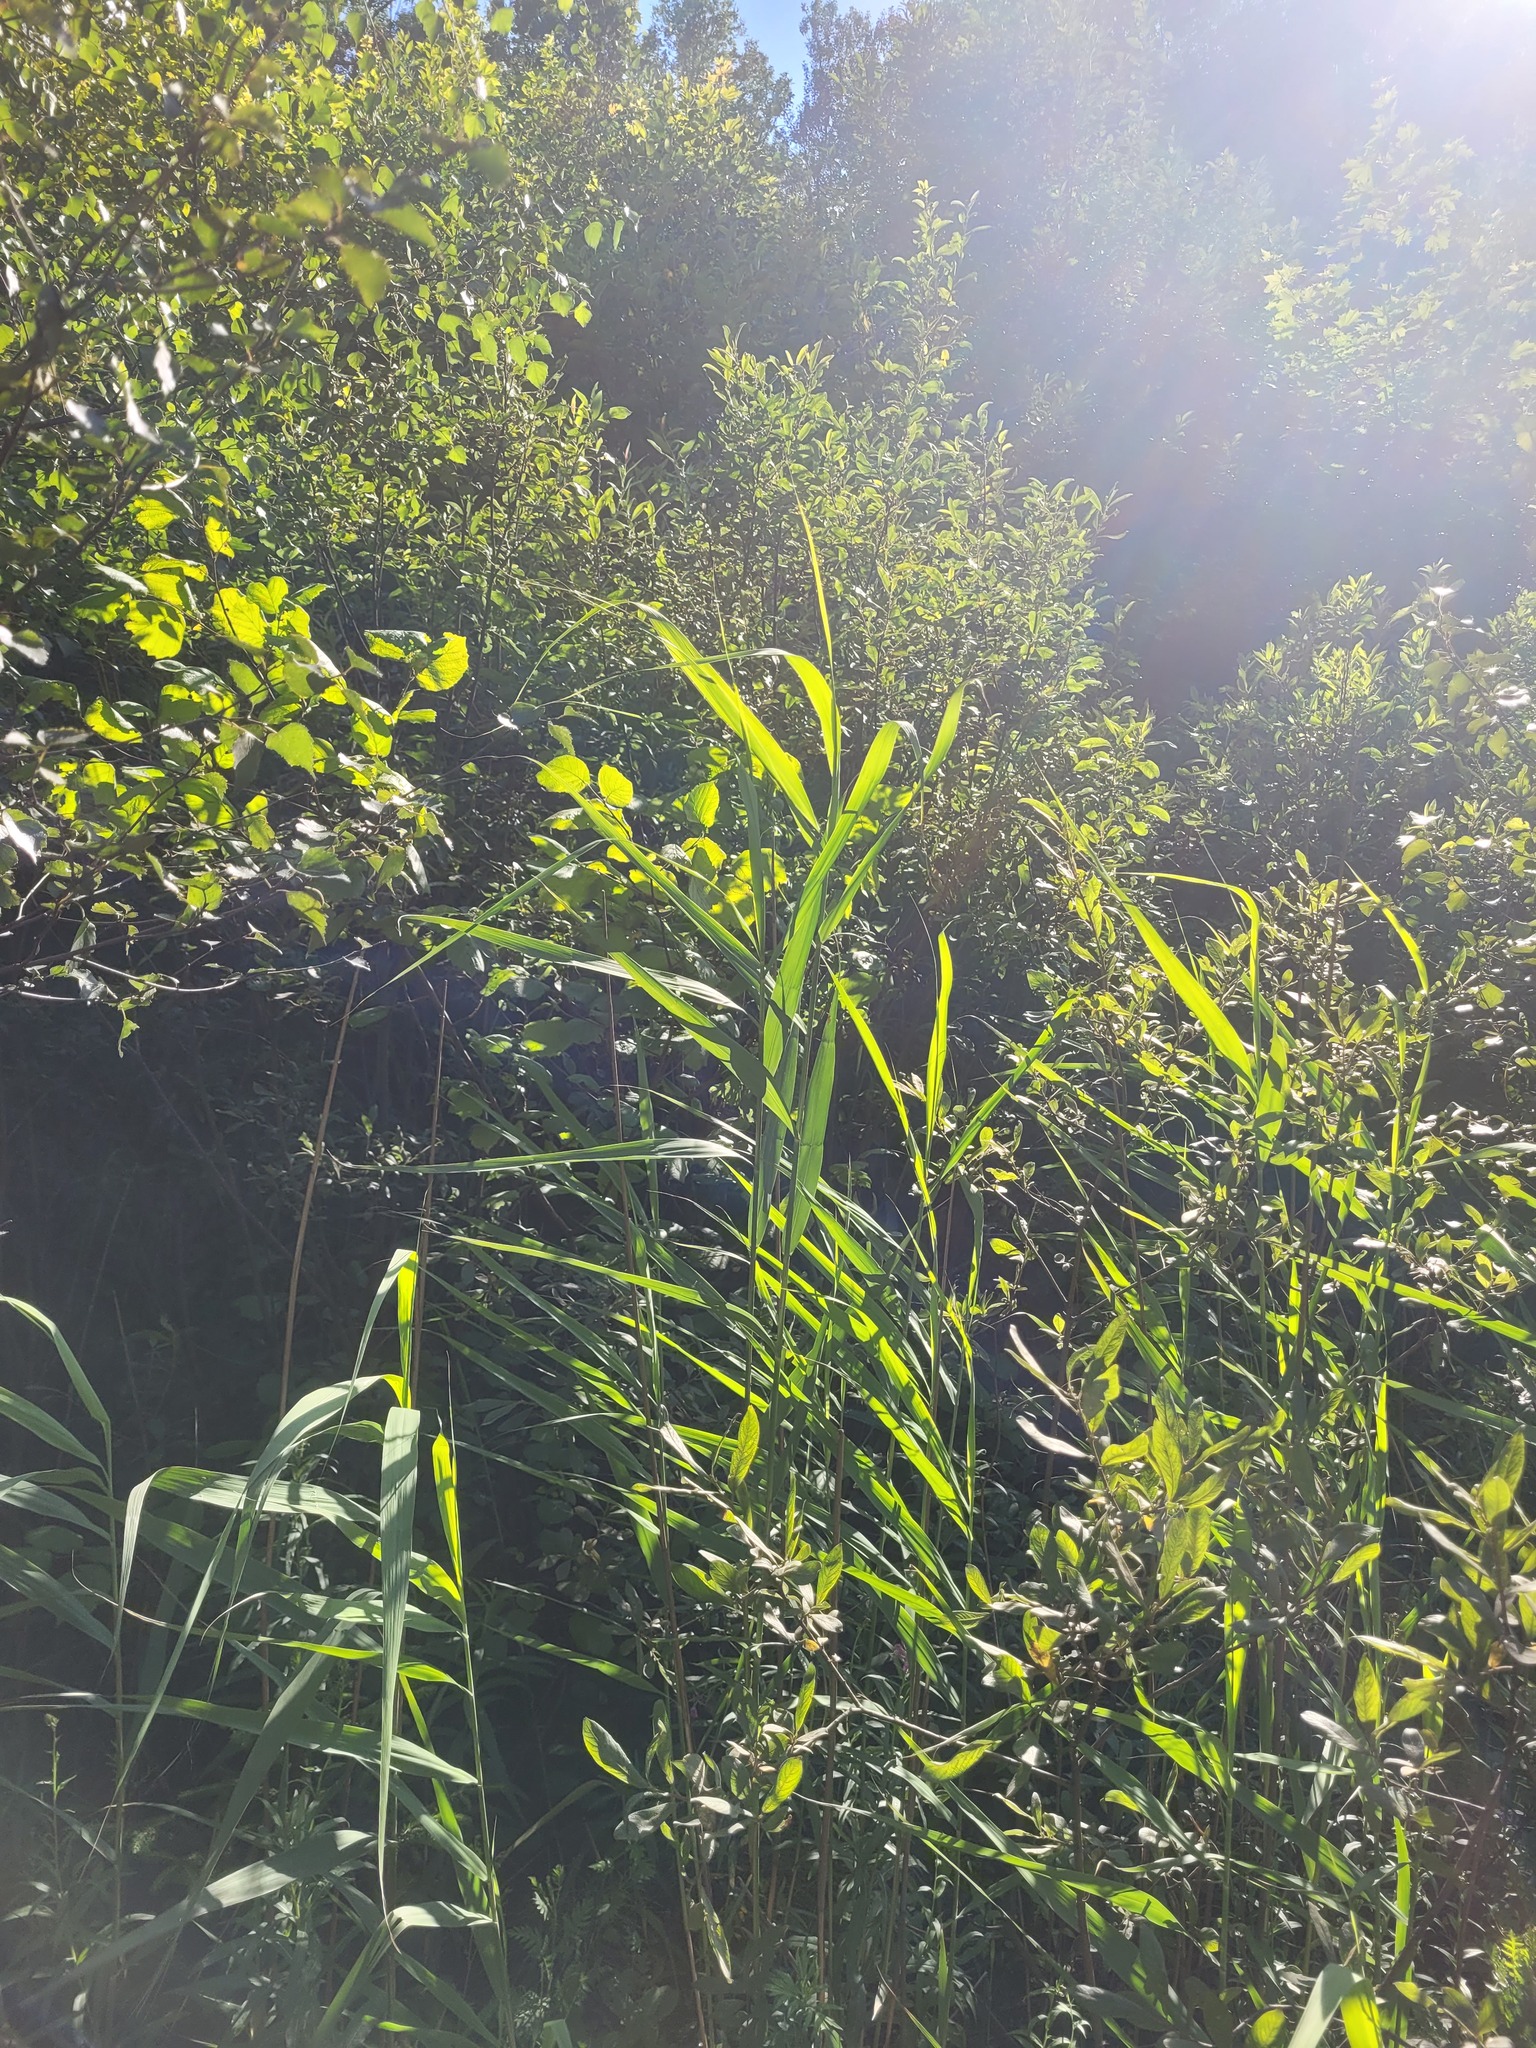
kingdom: Plantae
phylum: Tracheophyta
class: Liliopsida
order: Poales
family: Poaceae
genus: Phragmites
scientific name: Phragmites australis
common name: Common reed
